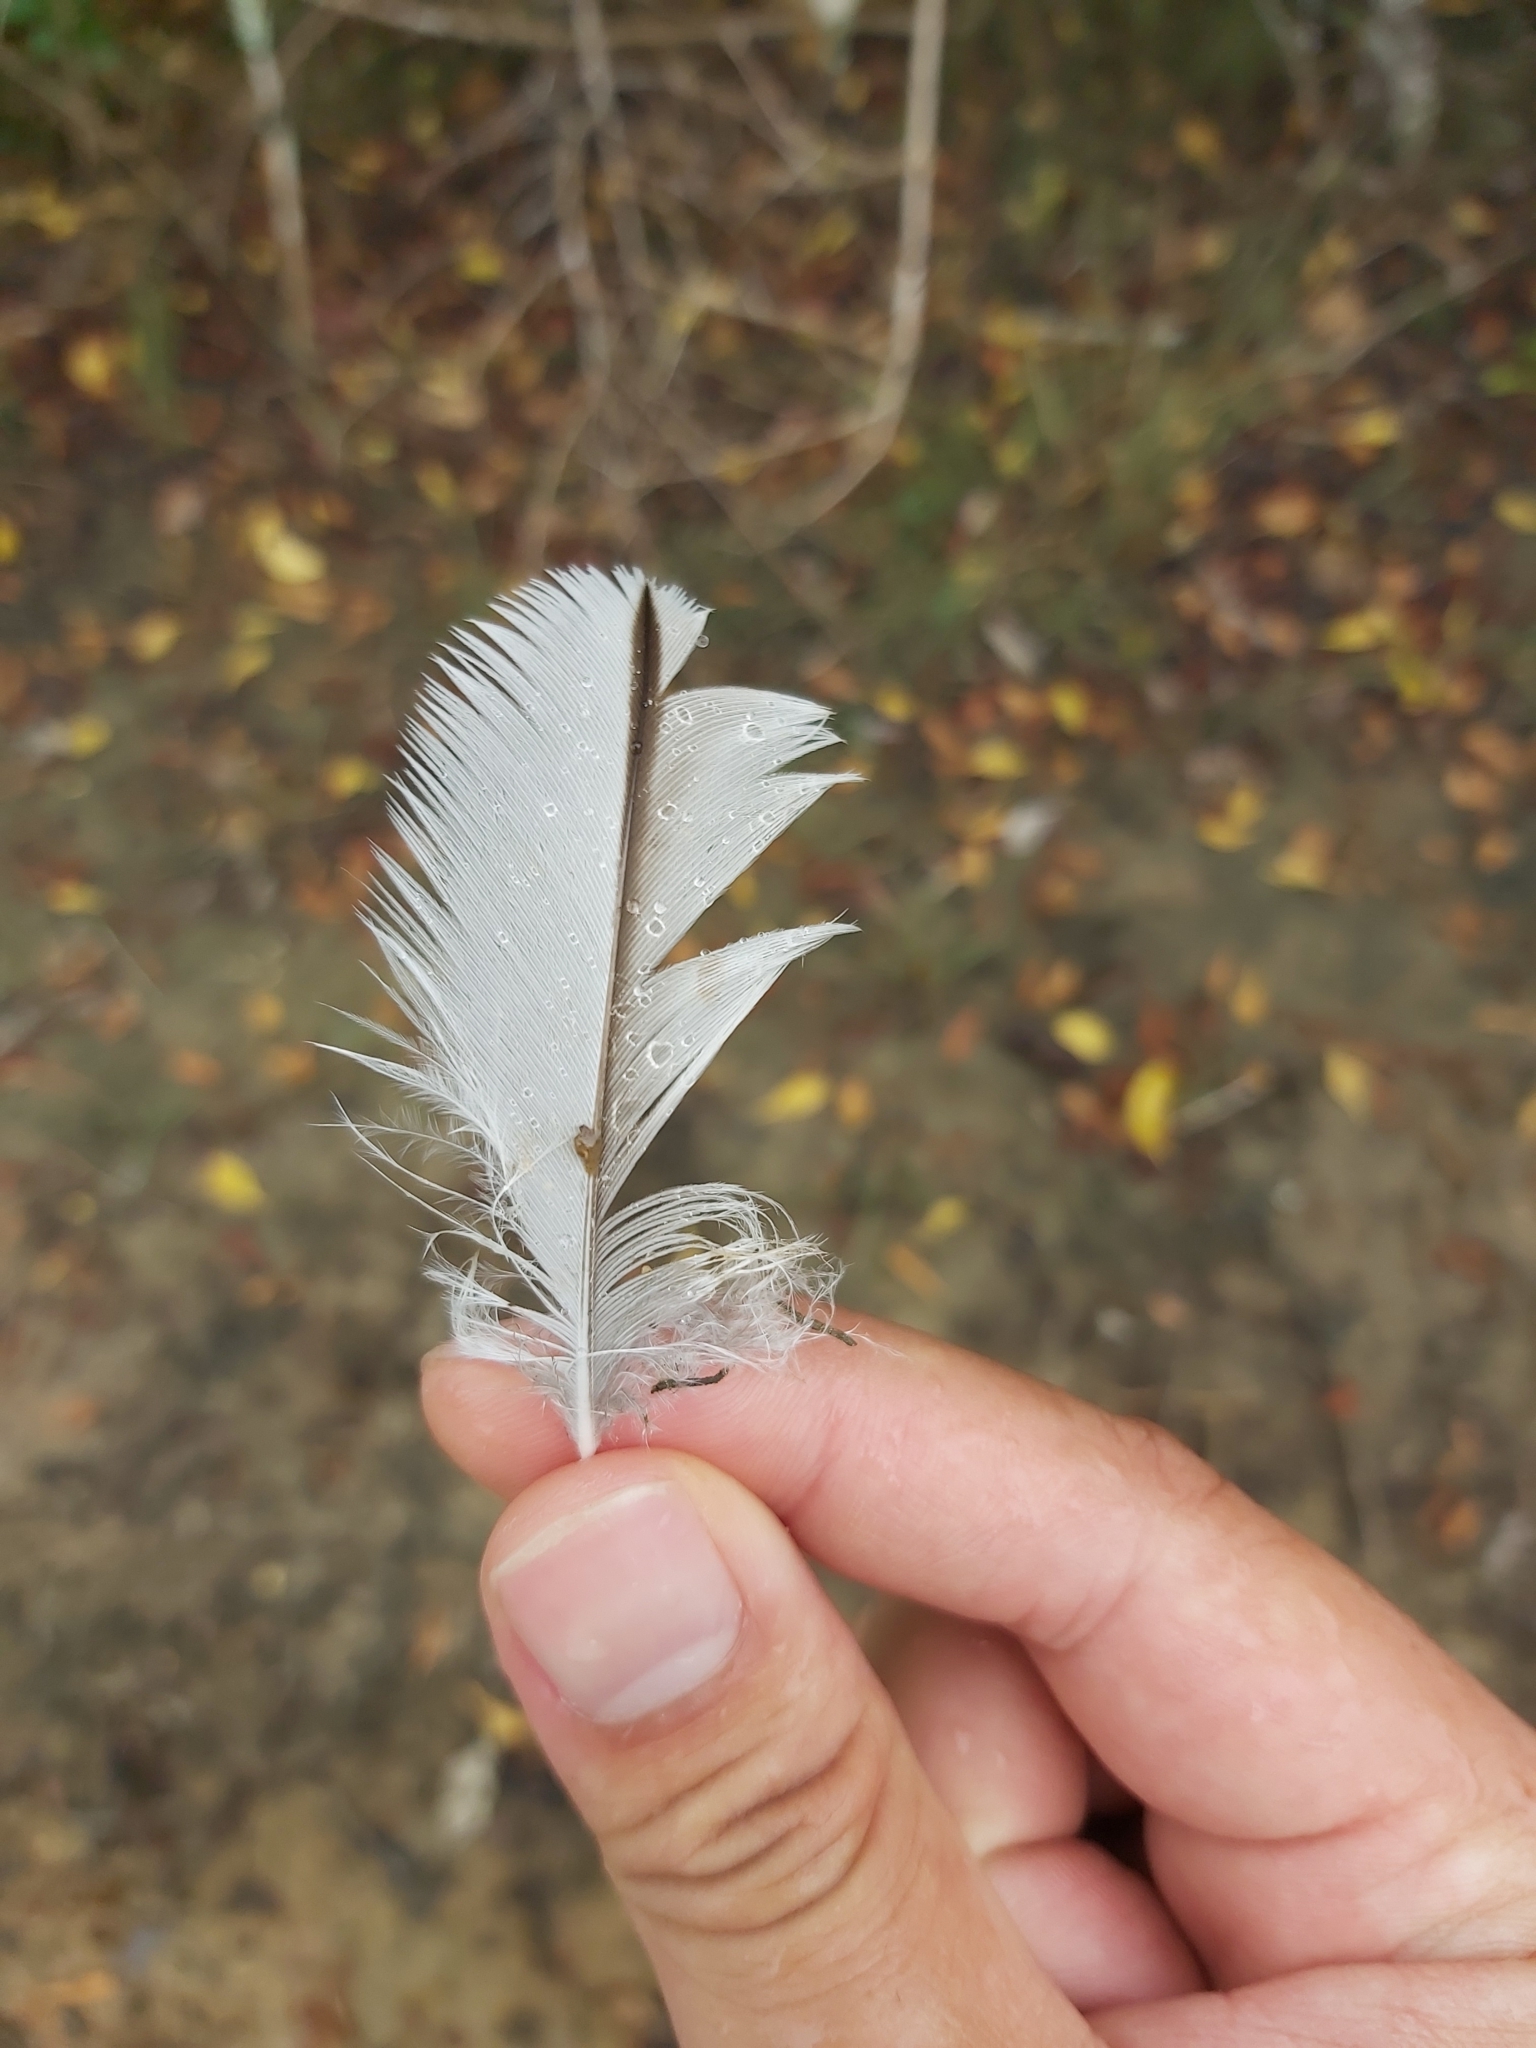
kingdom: Animalia
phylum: Chordata
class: Aves
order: Charadriiformes
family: Burhinidae
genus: Burhinus
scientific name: Burhinus grallarius
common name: Bush stone-curlew
